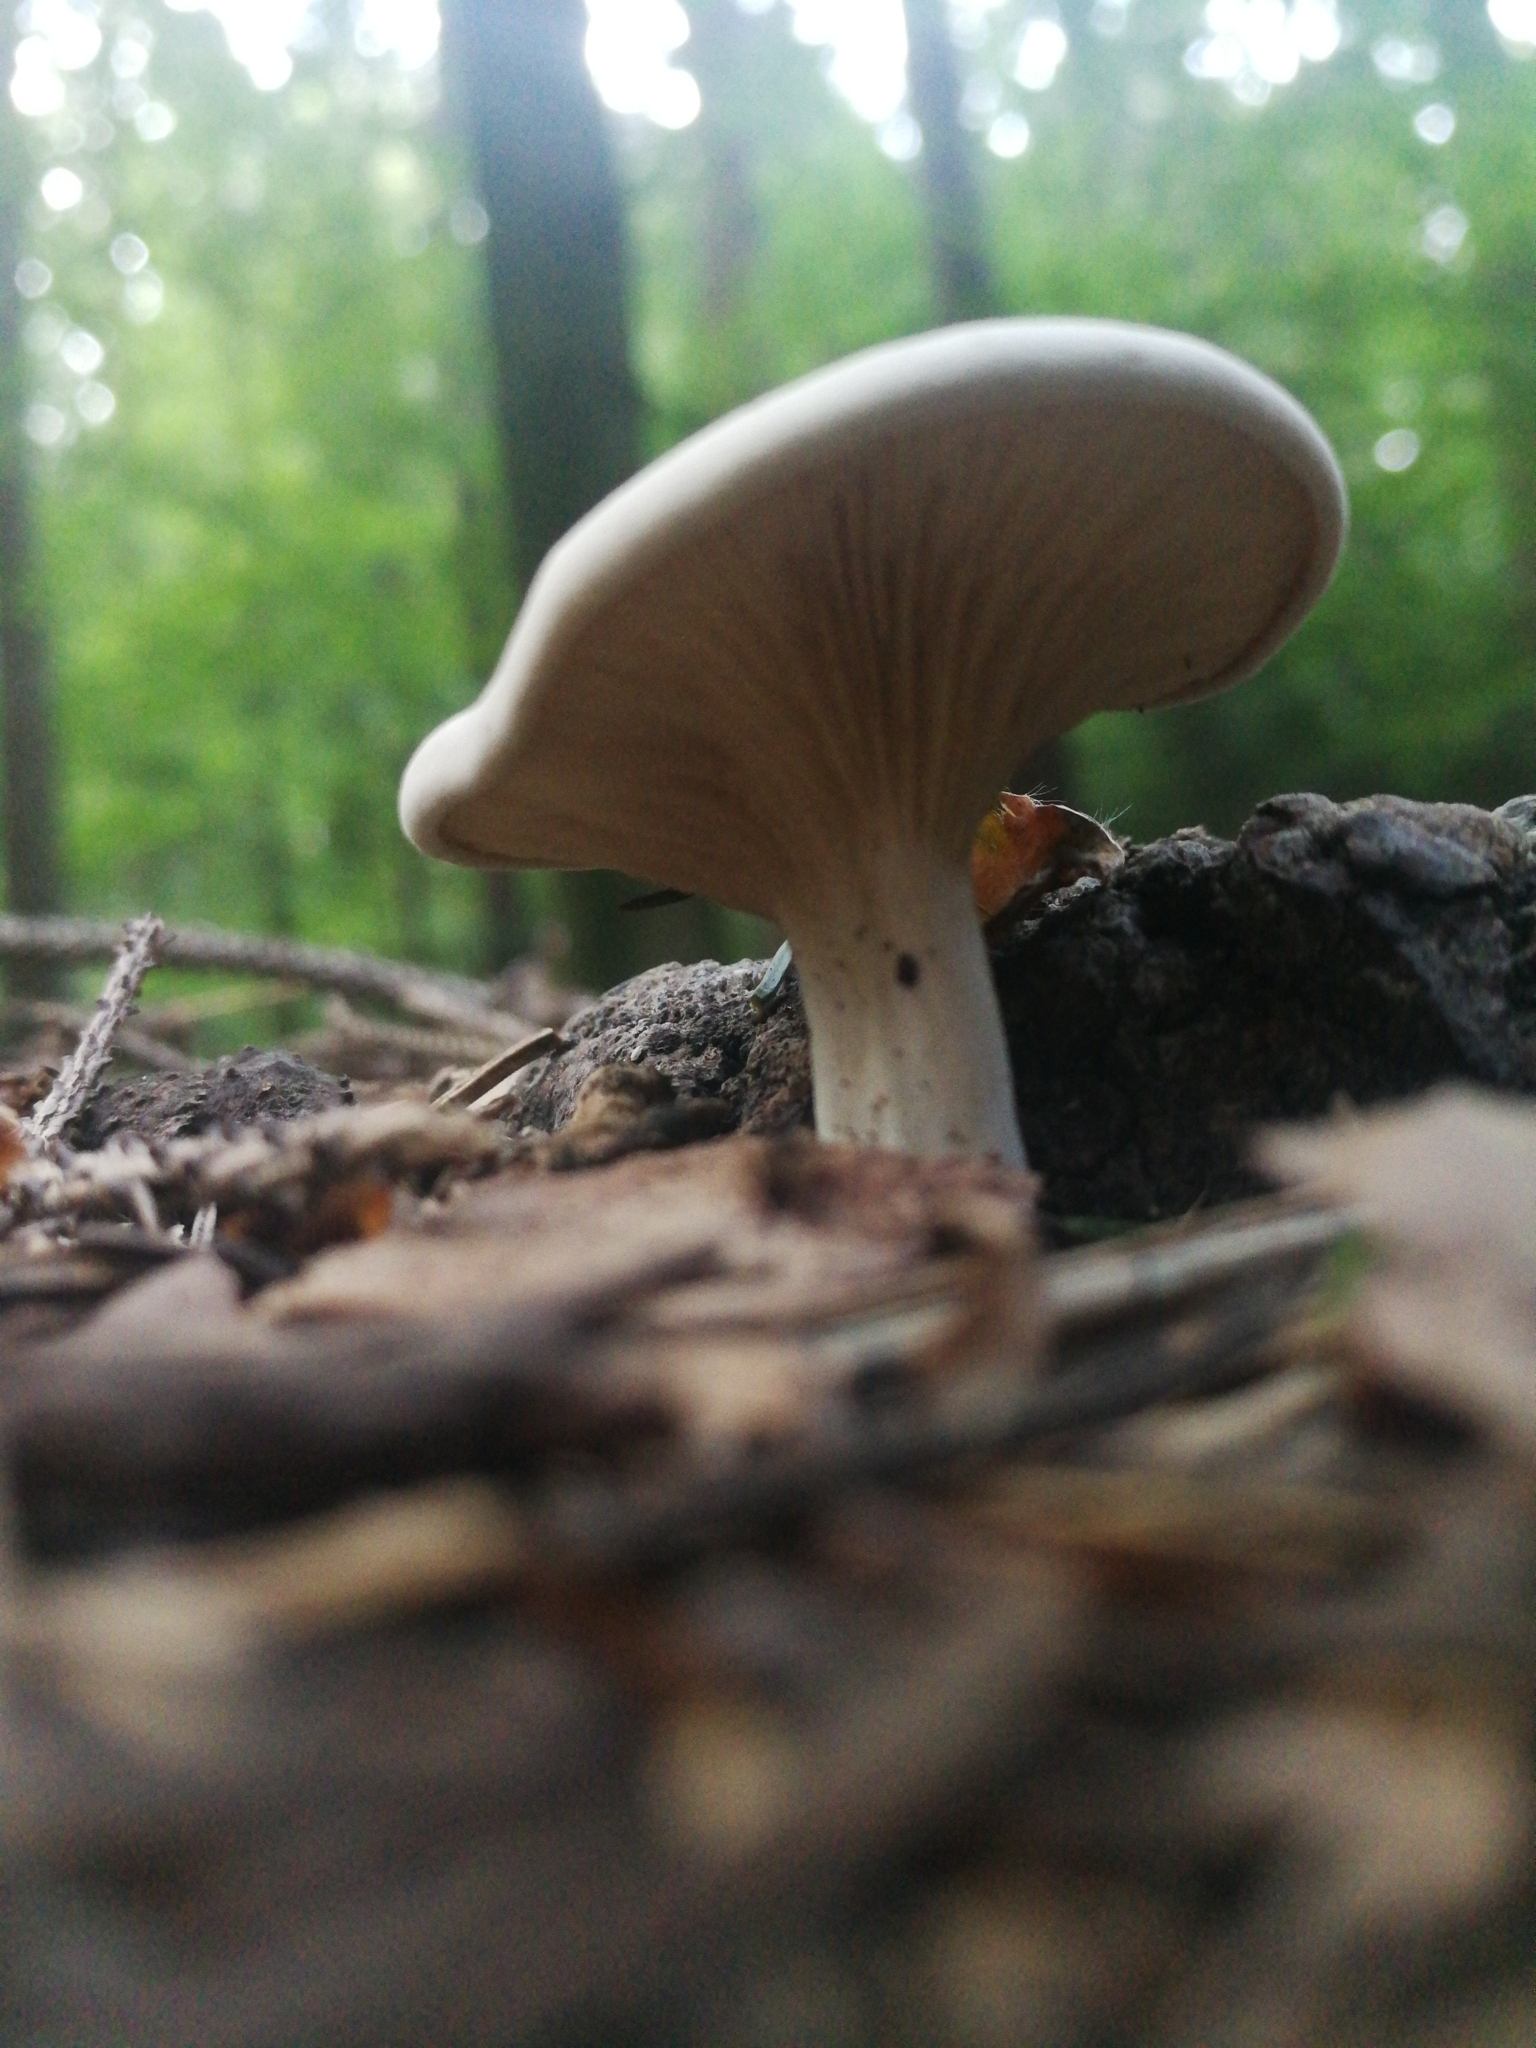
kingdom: Fungi
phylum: Basidiomycota
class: Agaricomycetes
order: Agaricales
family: Entolomataceae
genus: Clitopilus
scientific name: Clitopilus prunulus
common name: The miller
